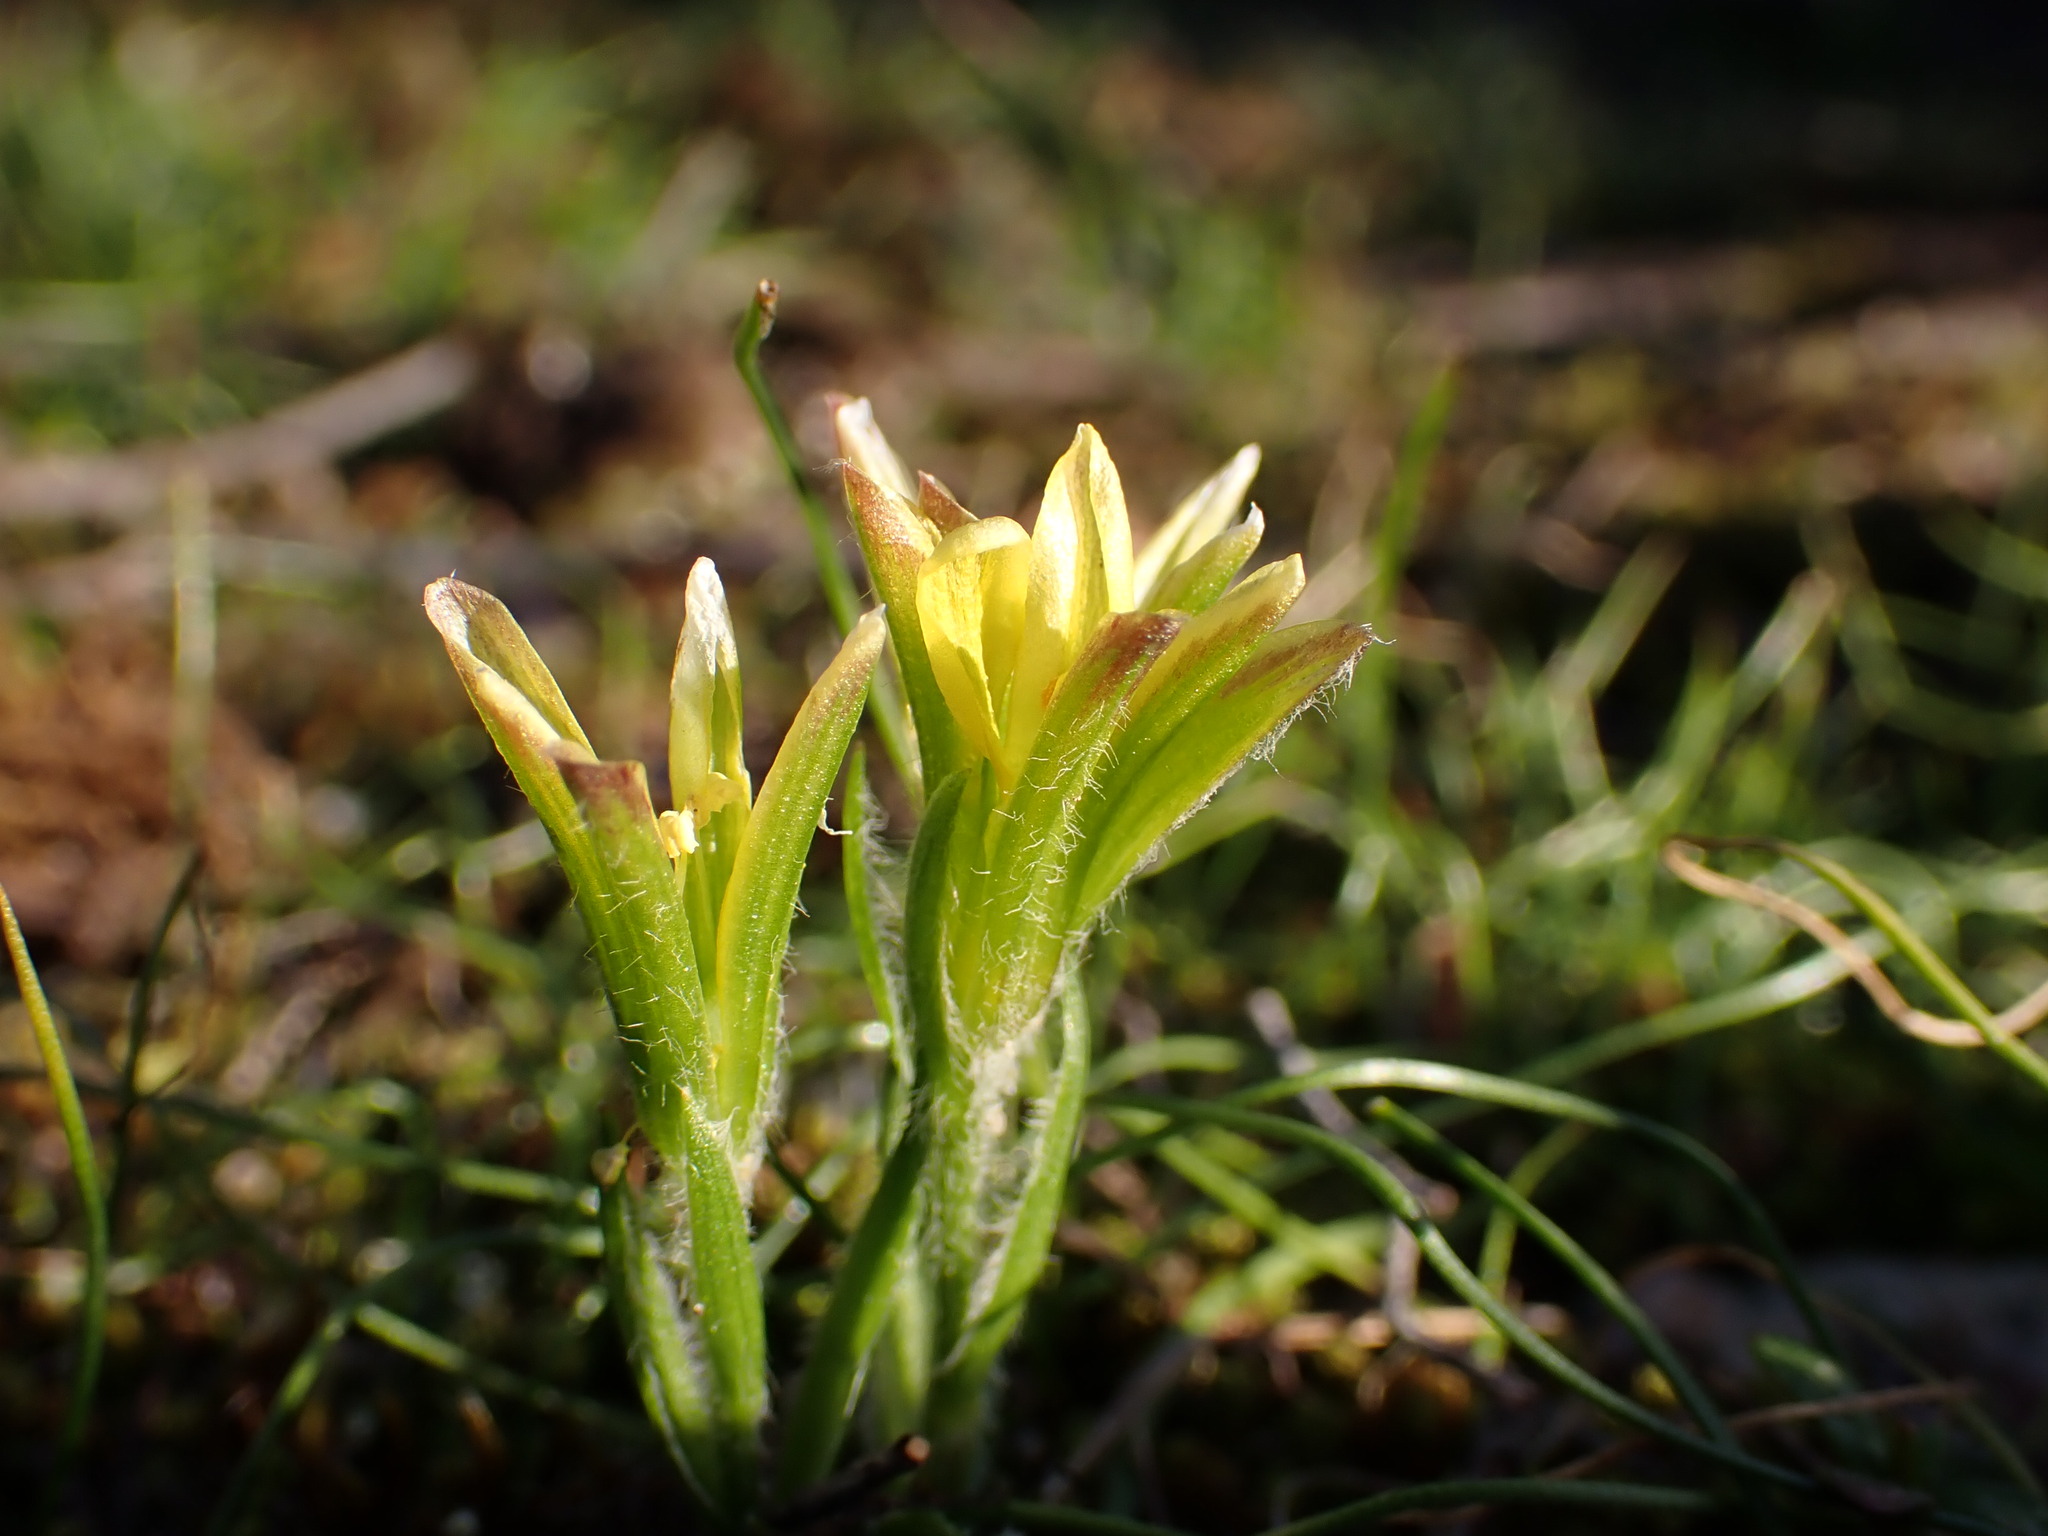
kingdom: Plantae
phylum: Tracheophyta
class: Liliopsida
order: Liliales
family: Liliaceae
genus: Gagea
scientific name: Gagea bohemica
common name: Early star-of-bethlehem
